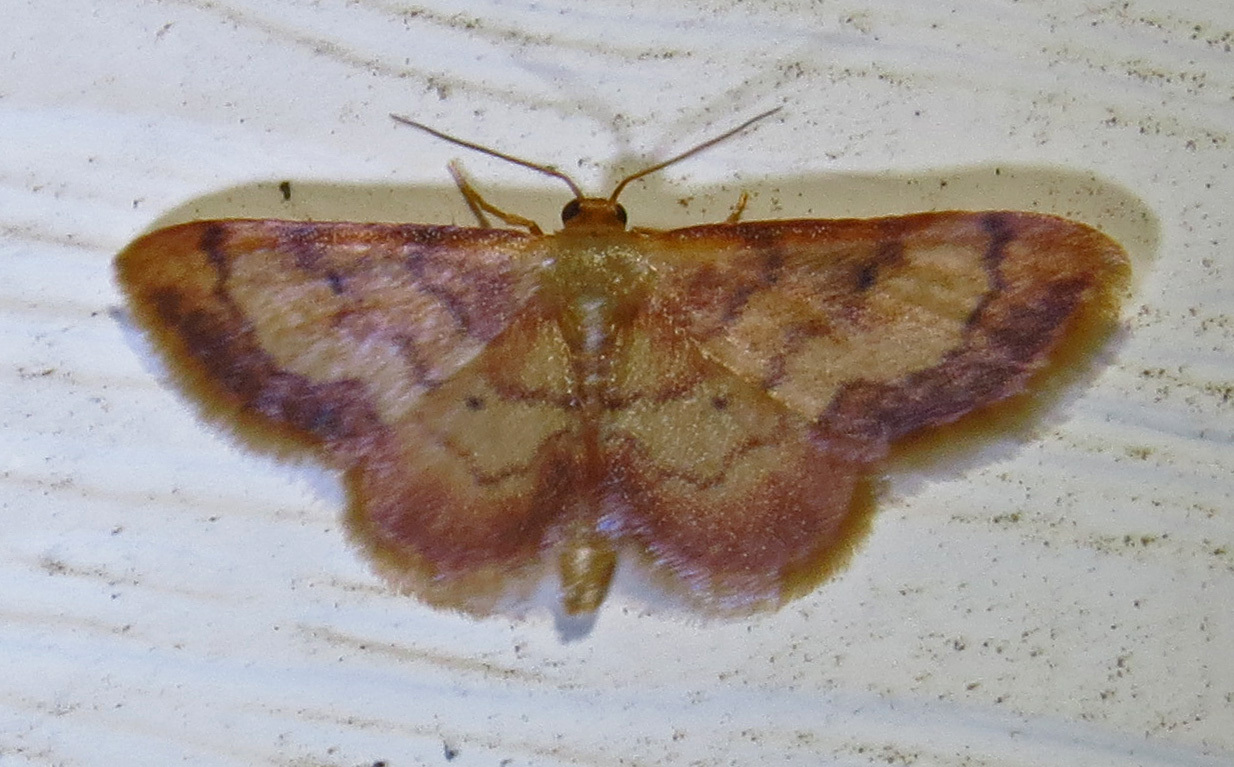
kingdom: Animalia
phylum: Arthropoda
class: Insecta
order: Lepidoptera
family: Geometridae
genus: Idaea
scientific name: Idaea demissaria
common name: Red-bordered wave
